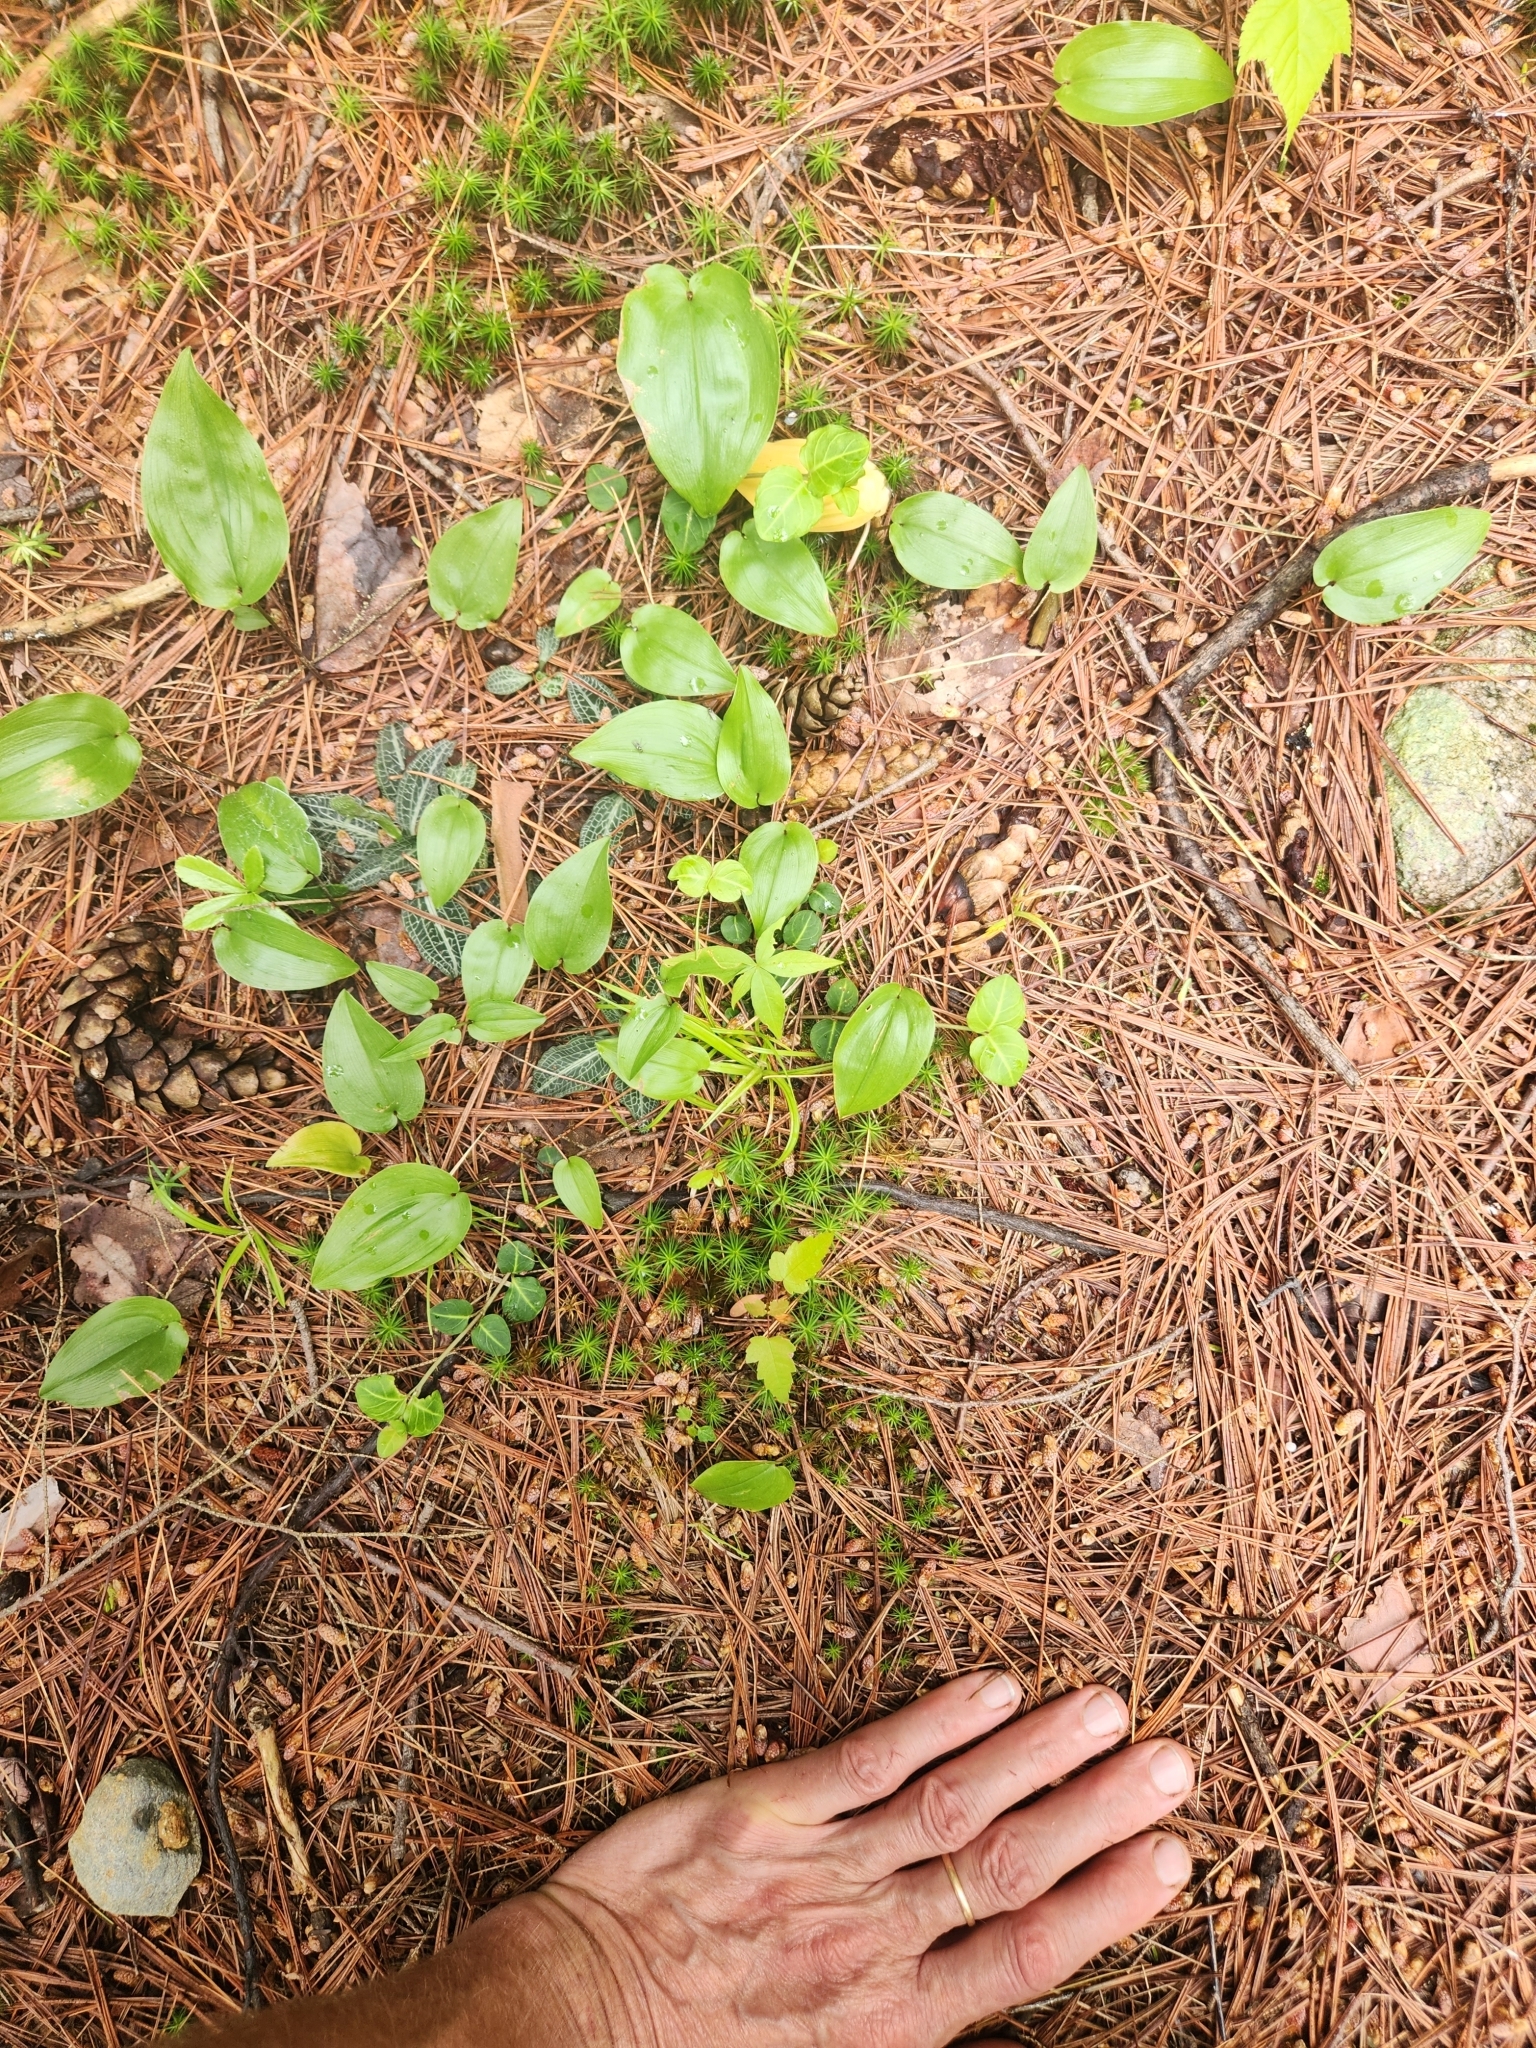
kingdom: Plantae
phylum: Tracheophyta
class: Liliopsida
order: Asparagales
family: Orchidaceae
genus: Goodyera
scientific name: Goodyera pubescens
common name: Downy rattlesnake-plantain
